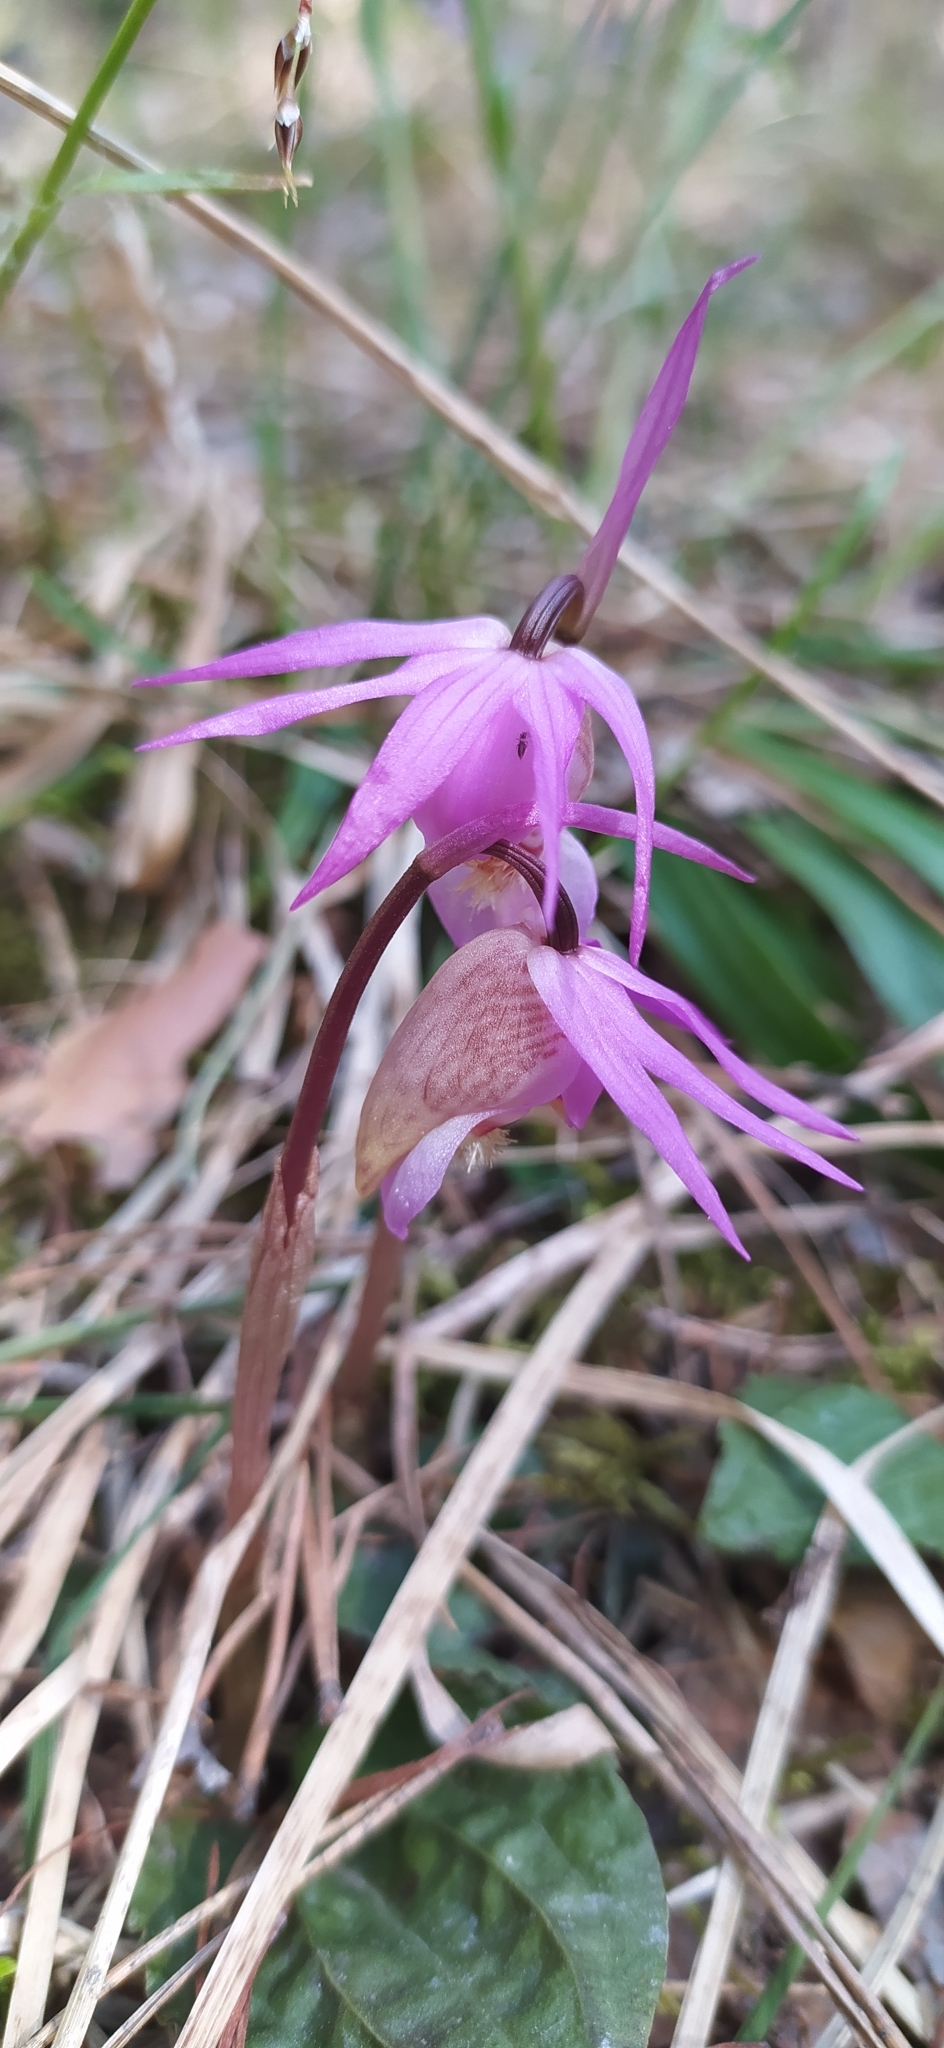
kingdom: Plantae
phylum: Tracheophyta
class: Liliopsida
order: Asparagales
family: Orchidaceae
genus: Calypso
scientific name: Calypso bulbosa
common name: Calypso
